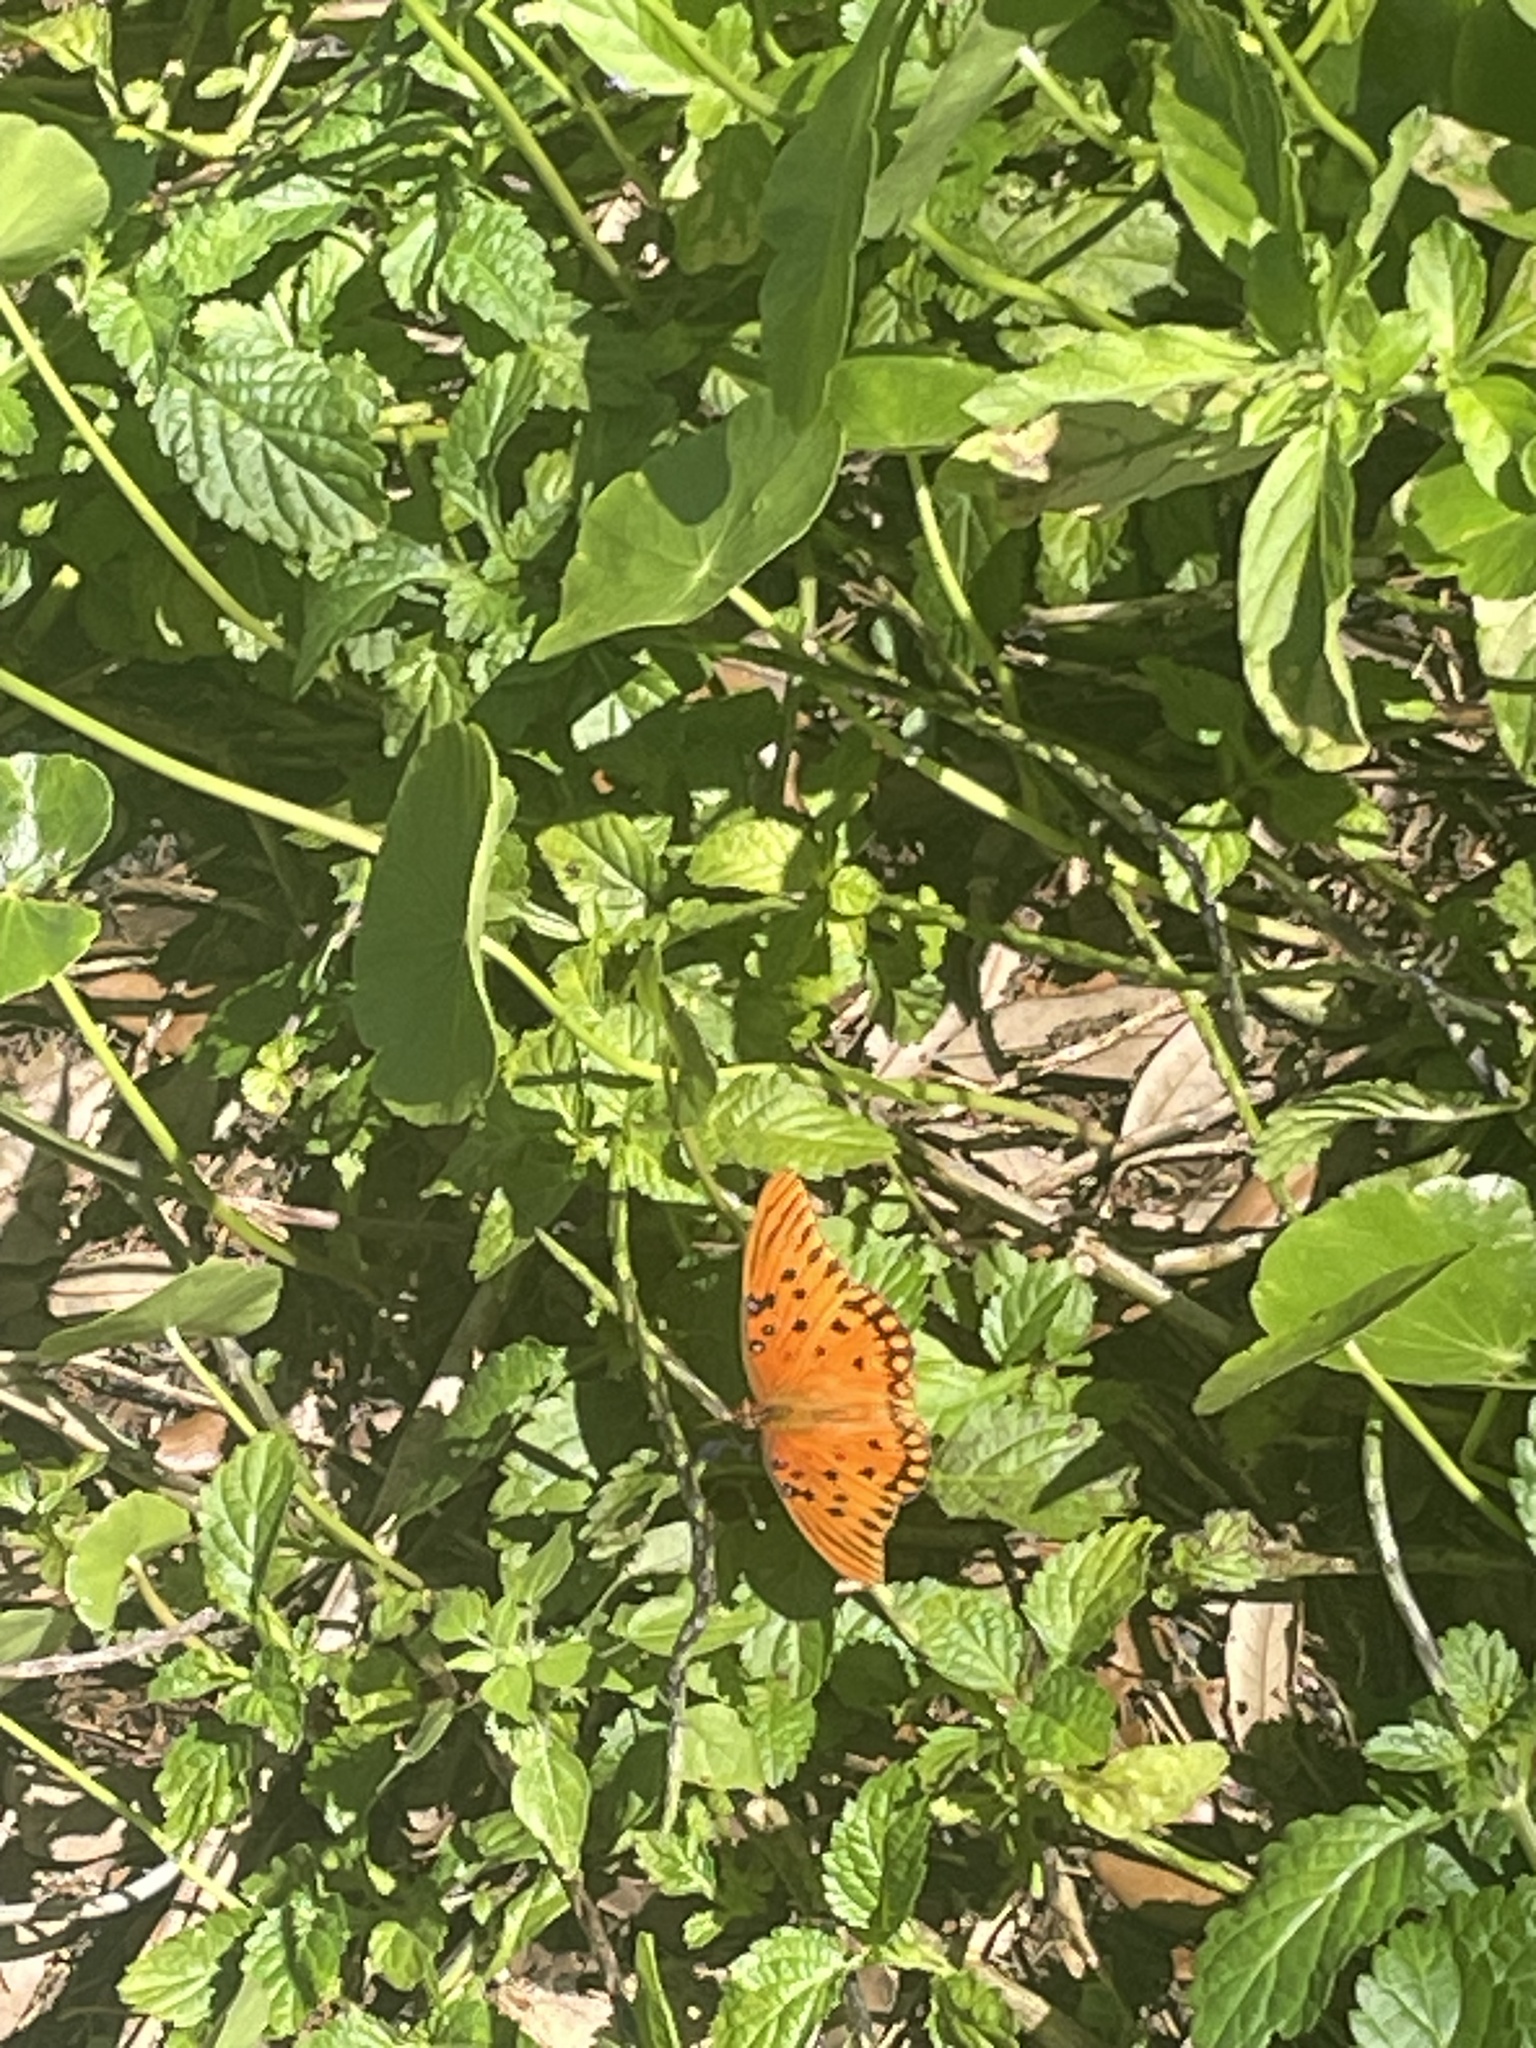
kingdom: Animalia
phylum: Arthropoda
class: Insecta
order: Lepidoptera
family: Nymphalidae
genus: Dione
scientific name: Dione vanillae
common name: Gulf fritillary
